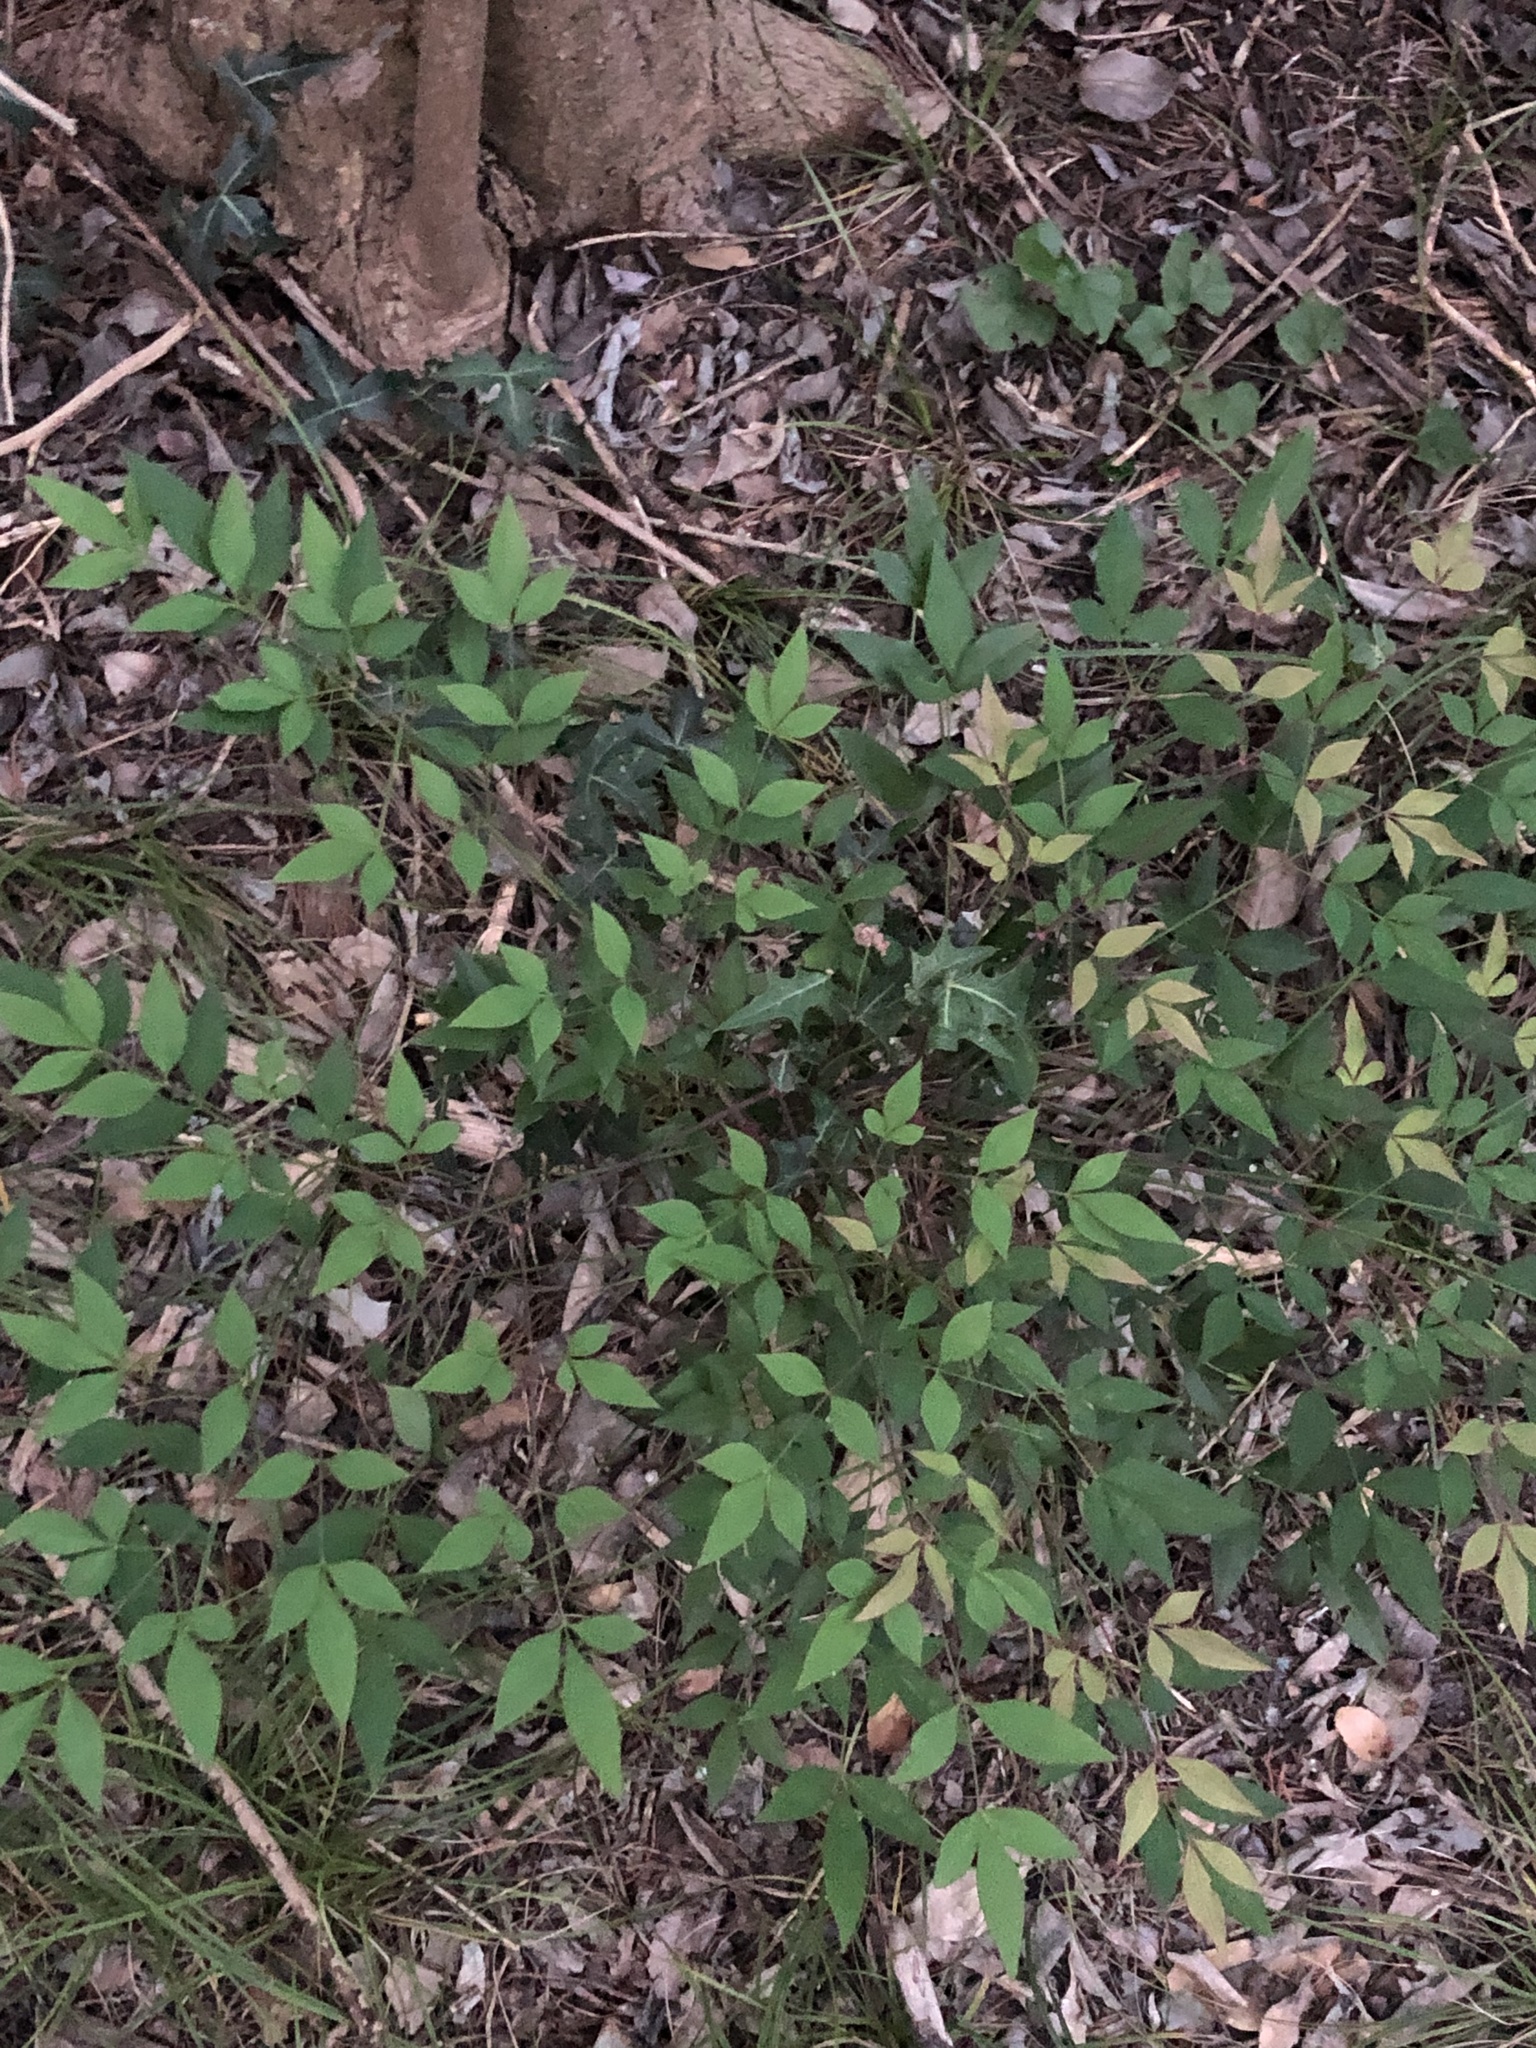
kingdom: Plantae
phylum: Tracheophyta
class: Magnoliopsida
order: Ranunculales
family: Berberidaceae
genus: Nandina
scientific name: Nandina domestica
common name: Sacred bamboo
